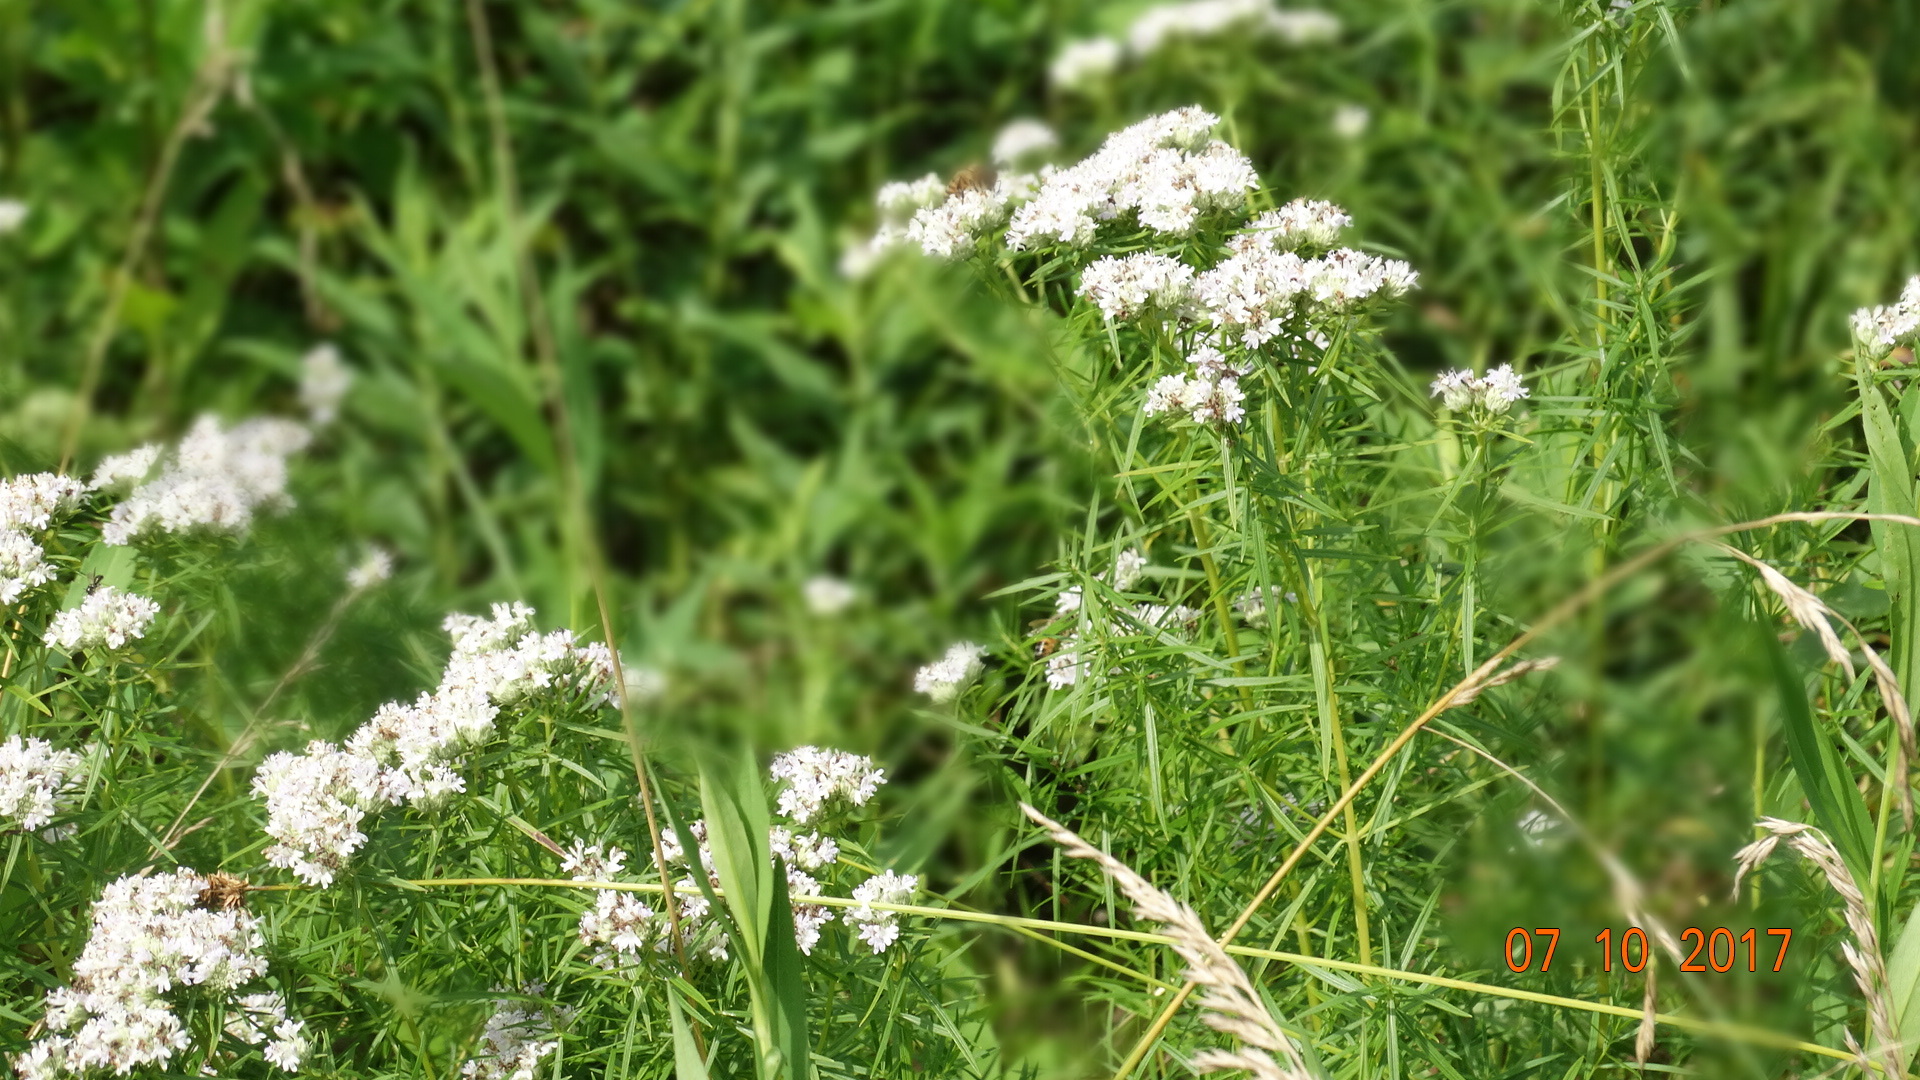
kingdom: Plantae
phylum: Tracheophyta
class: Magnoliopsida
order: Lamiales
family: Lamiaceae
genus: Pycnanthemum
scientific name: Pycnanthemum tenuifolium
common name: Narrow-leaf mountain-mint
